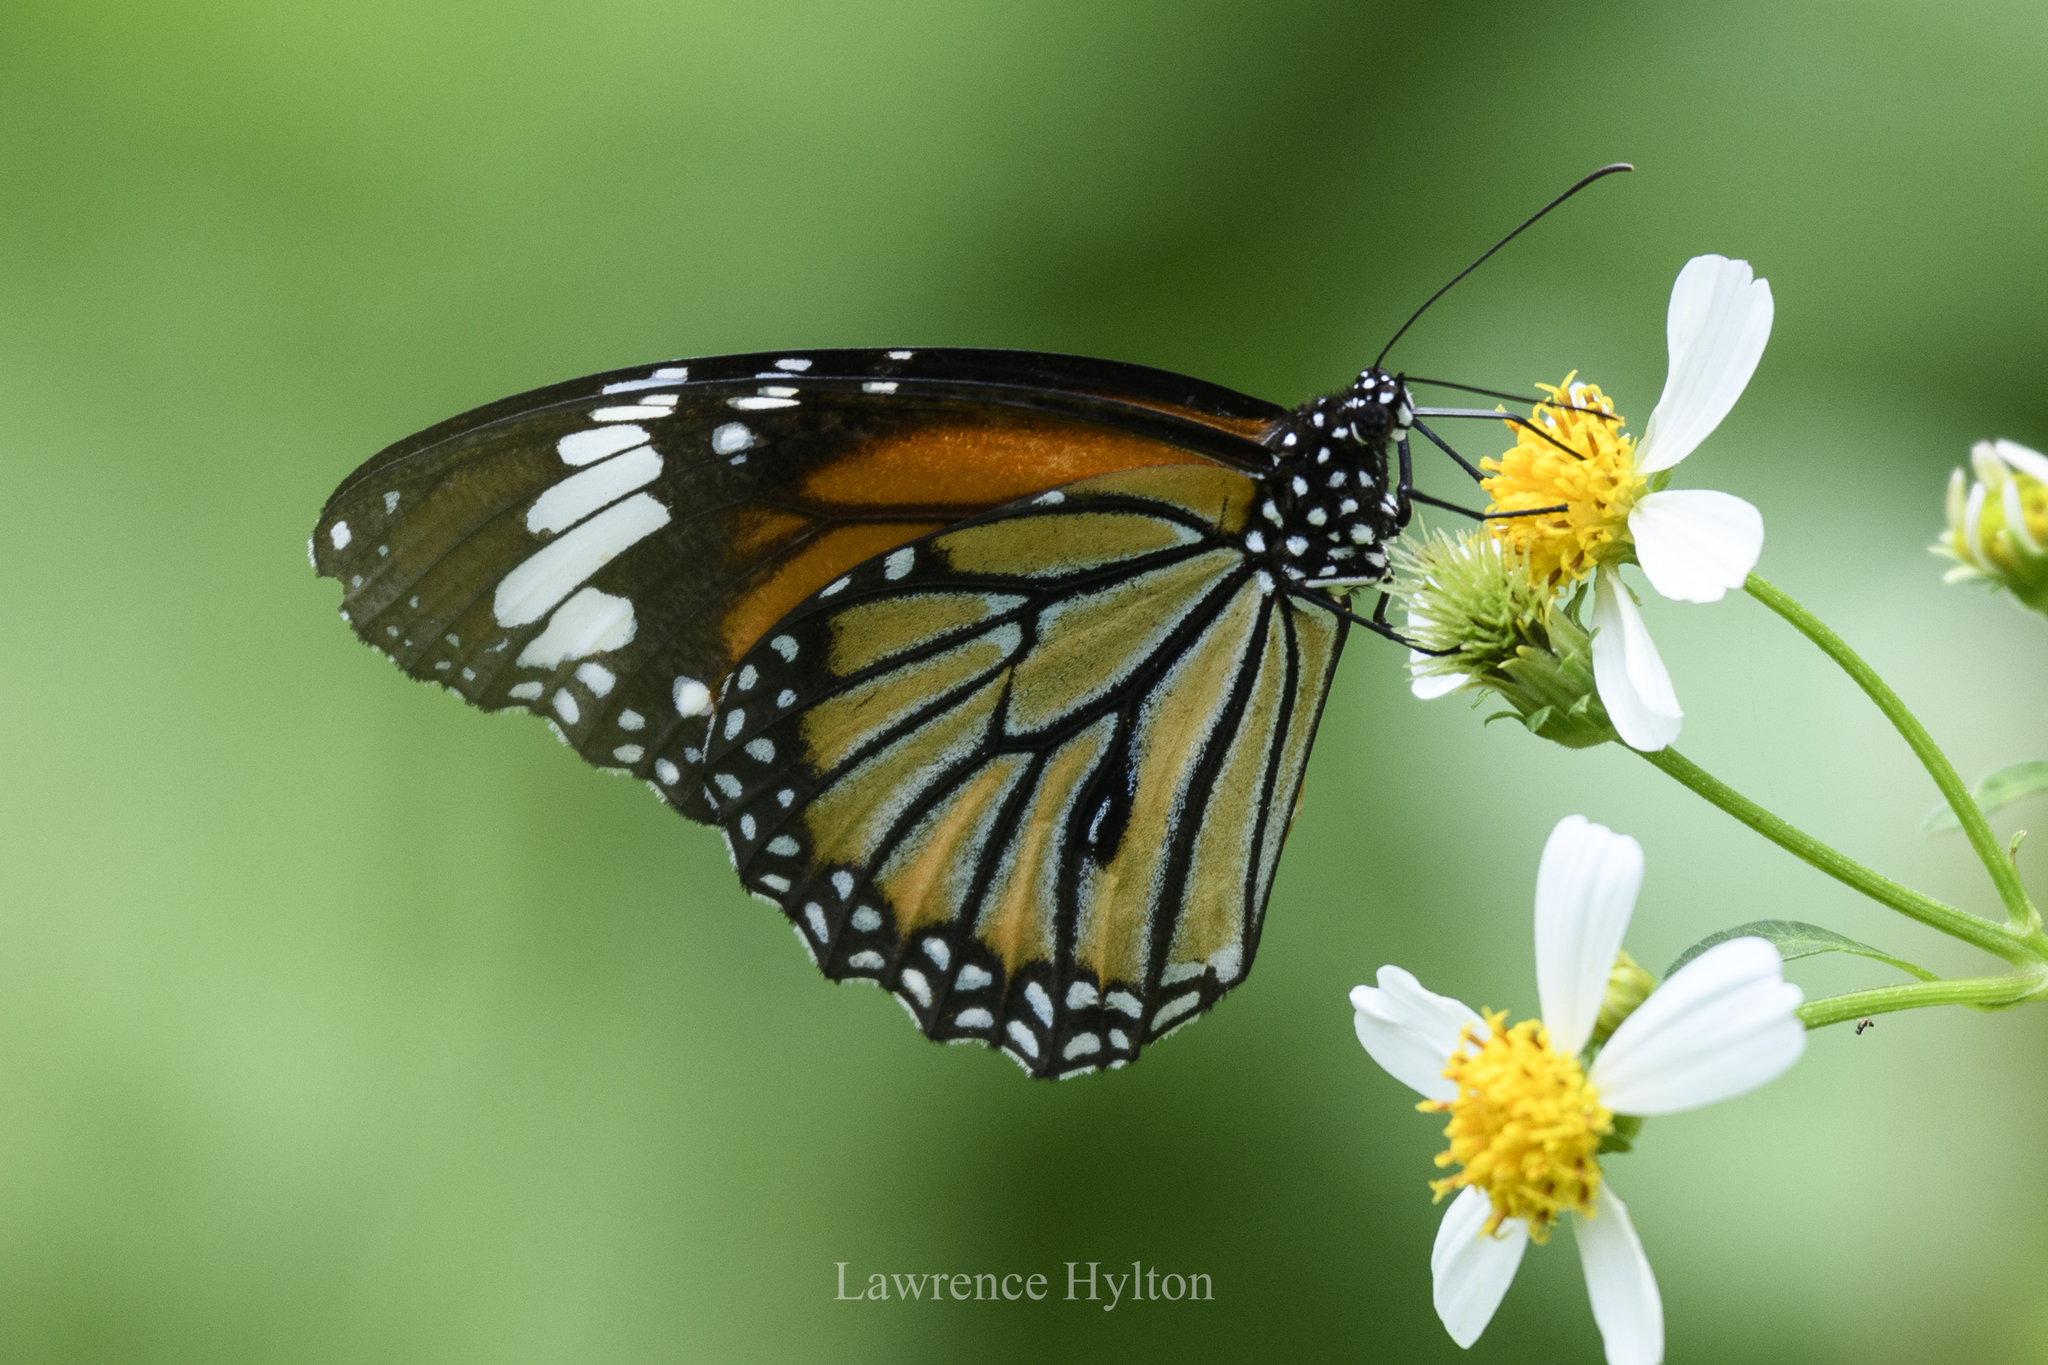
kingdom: Animalia
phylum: Arthropoda
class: Insecta
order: Lepidoptera
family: Nymphalidae
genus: Danaus
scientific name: Danaus genutia
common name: Common tiger butterfly
